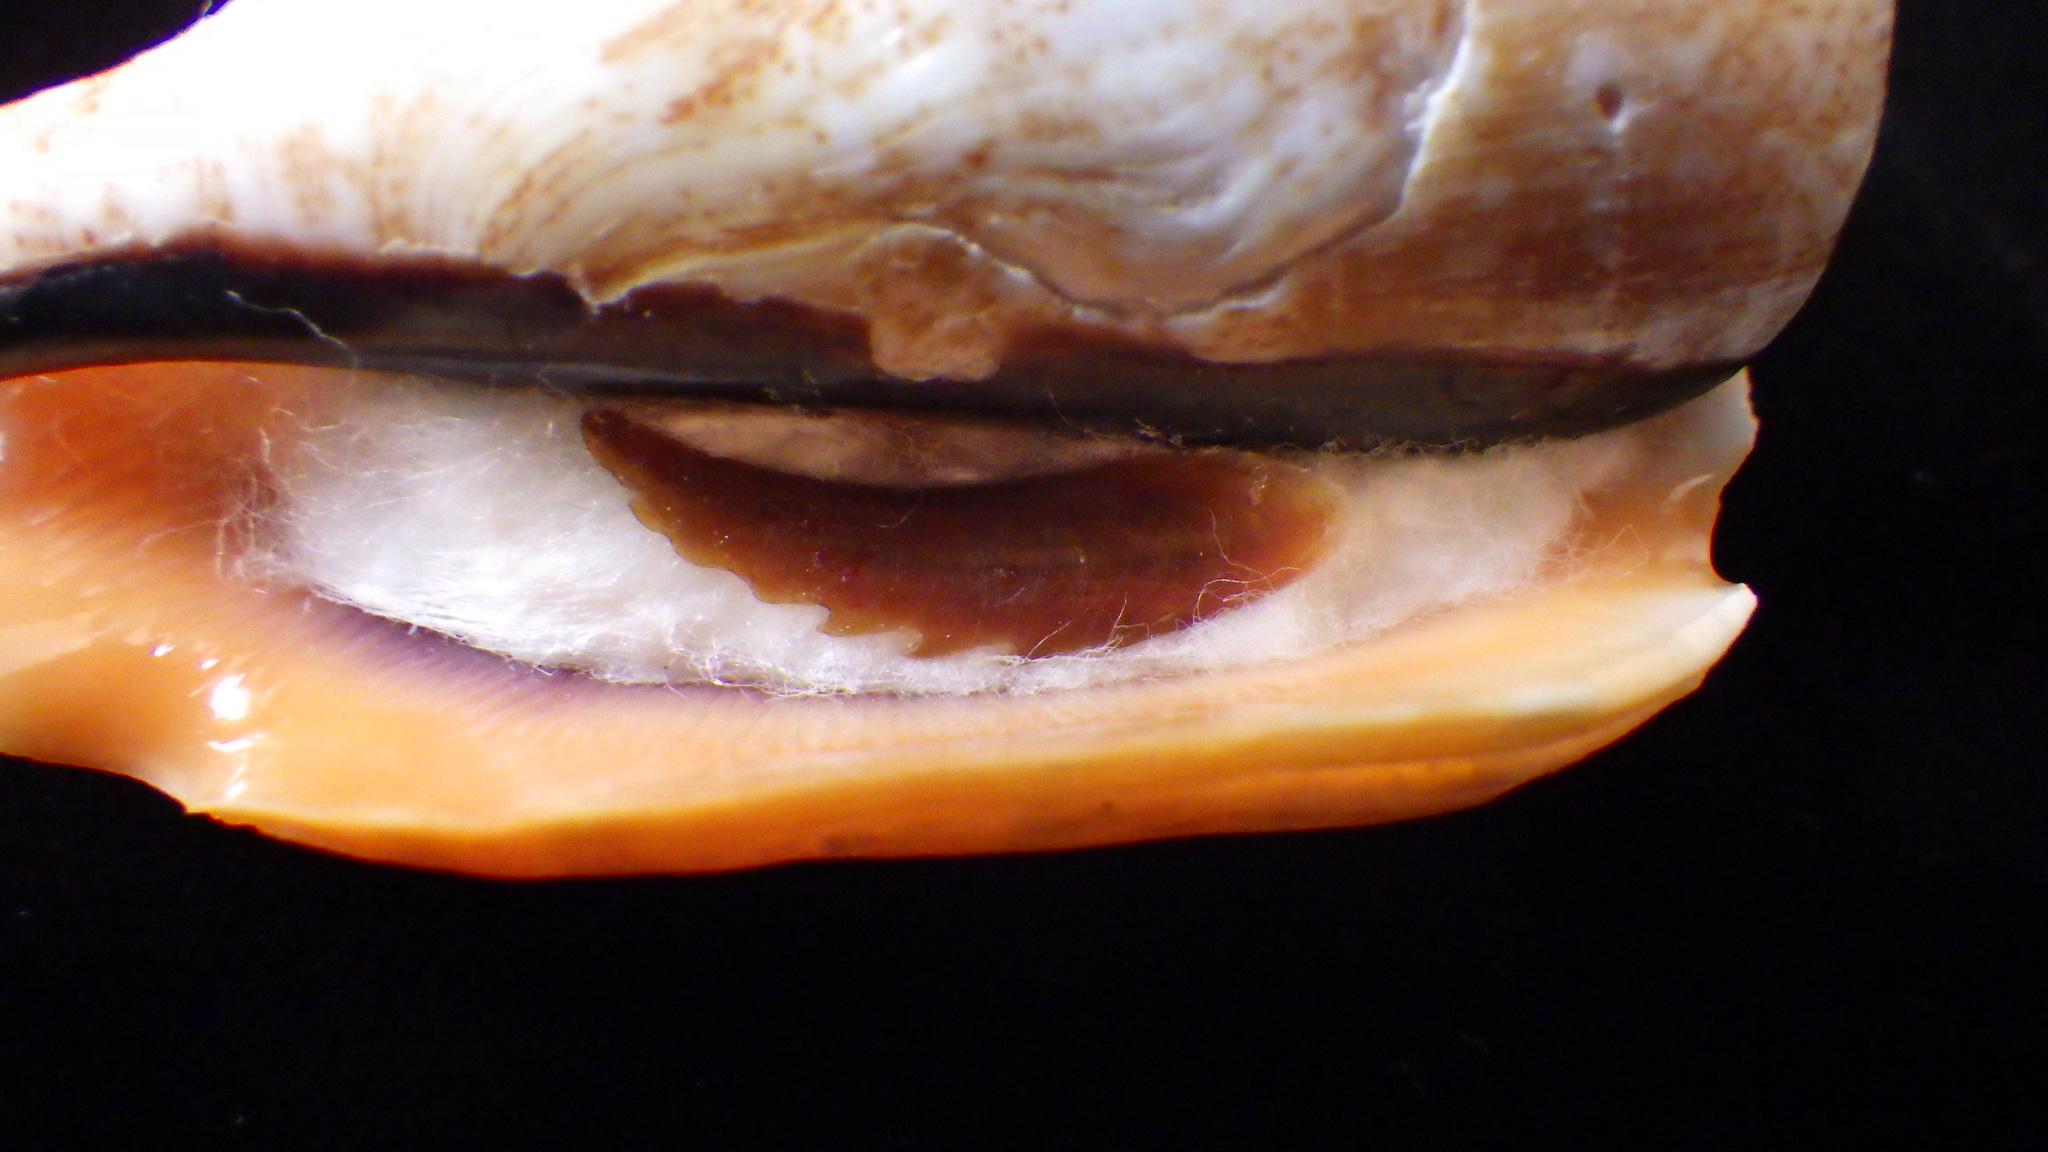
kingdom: Animalia
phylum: Mollusca
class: Gastropoda
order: Littorinimorpha
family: Strombidae
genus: Conomurex
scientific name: Conomurex luhuanus
